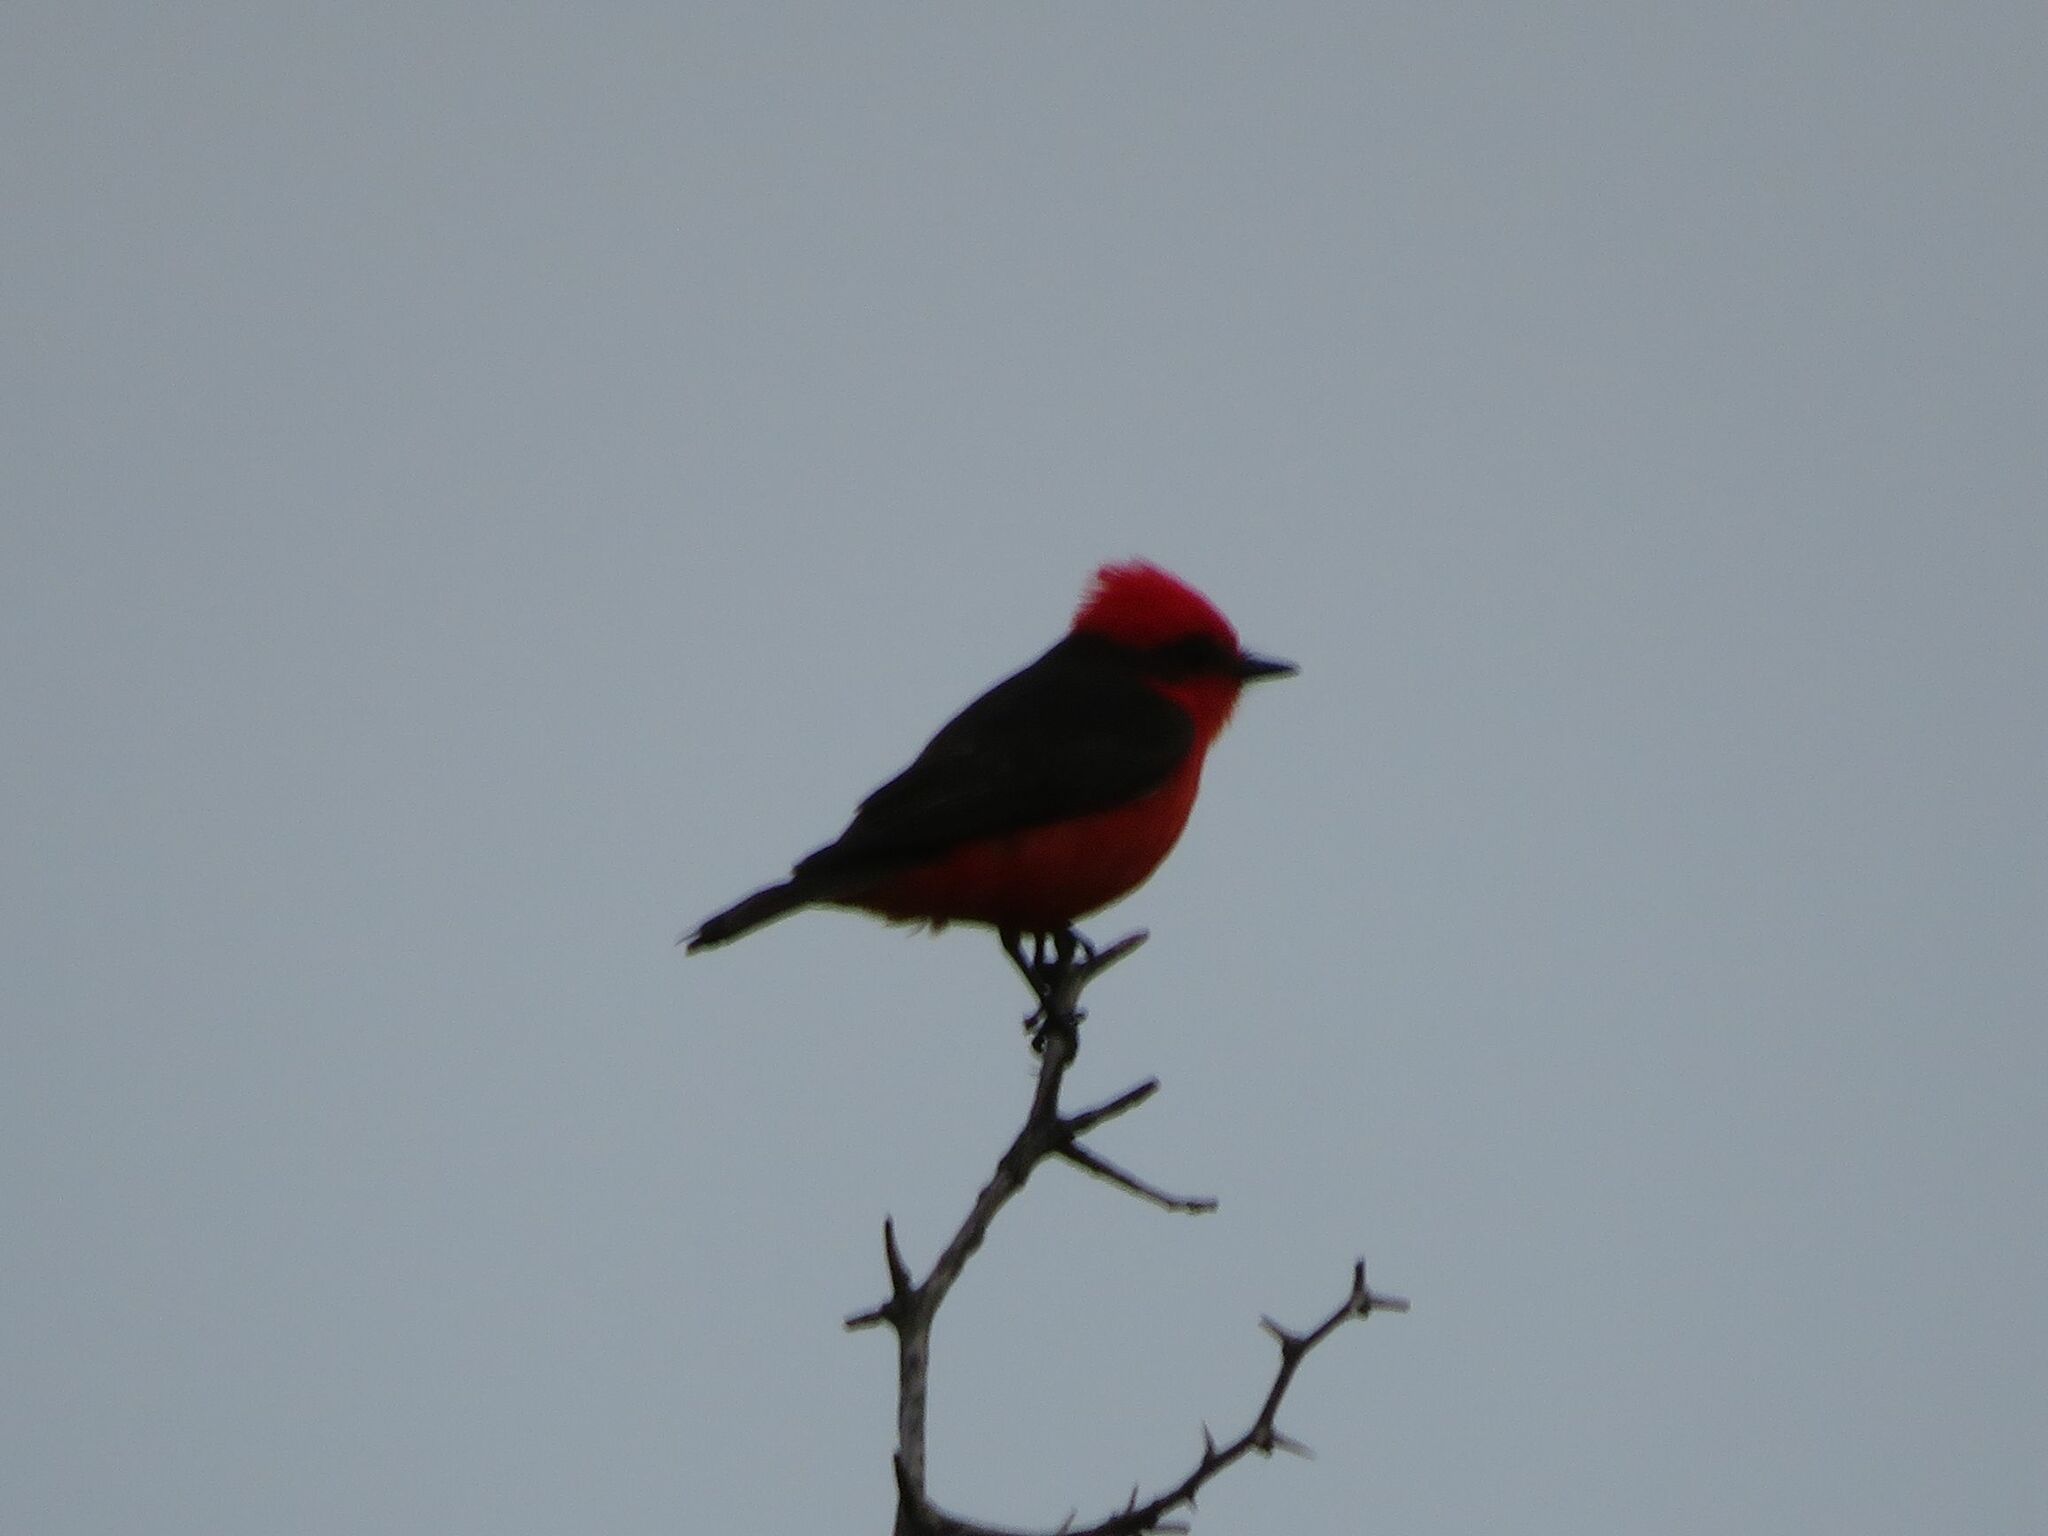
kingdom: Animalia
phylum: Chordata
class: Aves
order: Passeriformes
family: Tyrannidae
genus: Pyrocephalus
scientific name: Pyrocephalus rubinus
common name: Vermilion flycatcher
